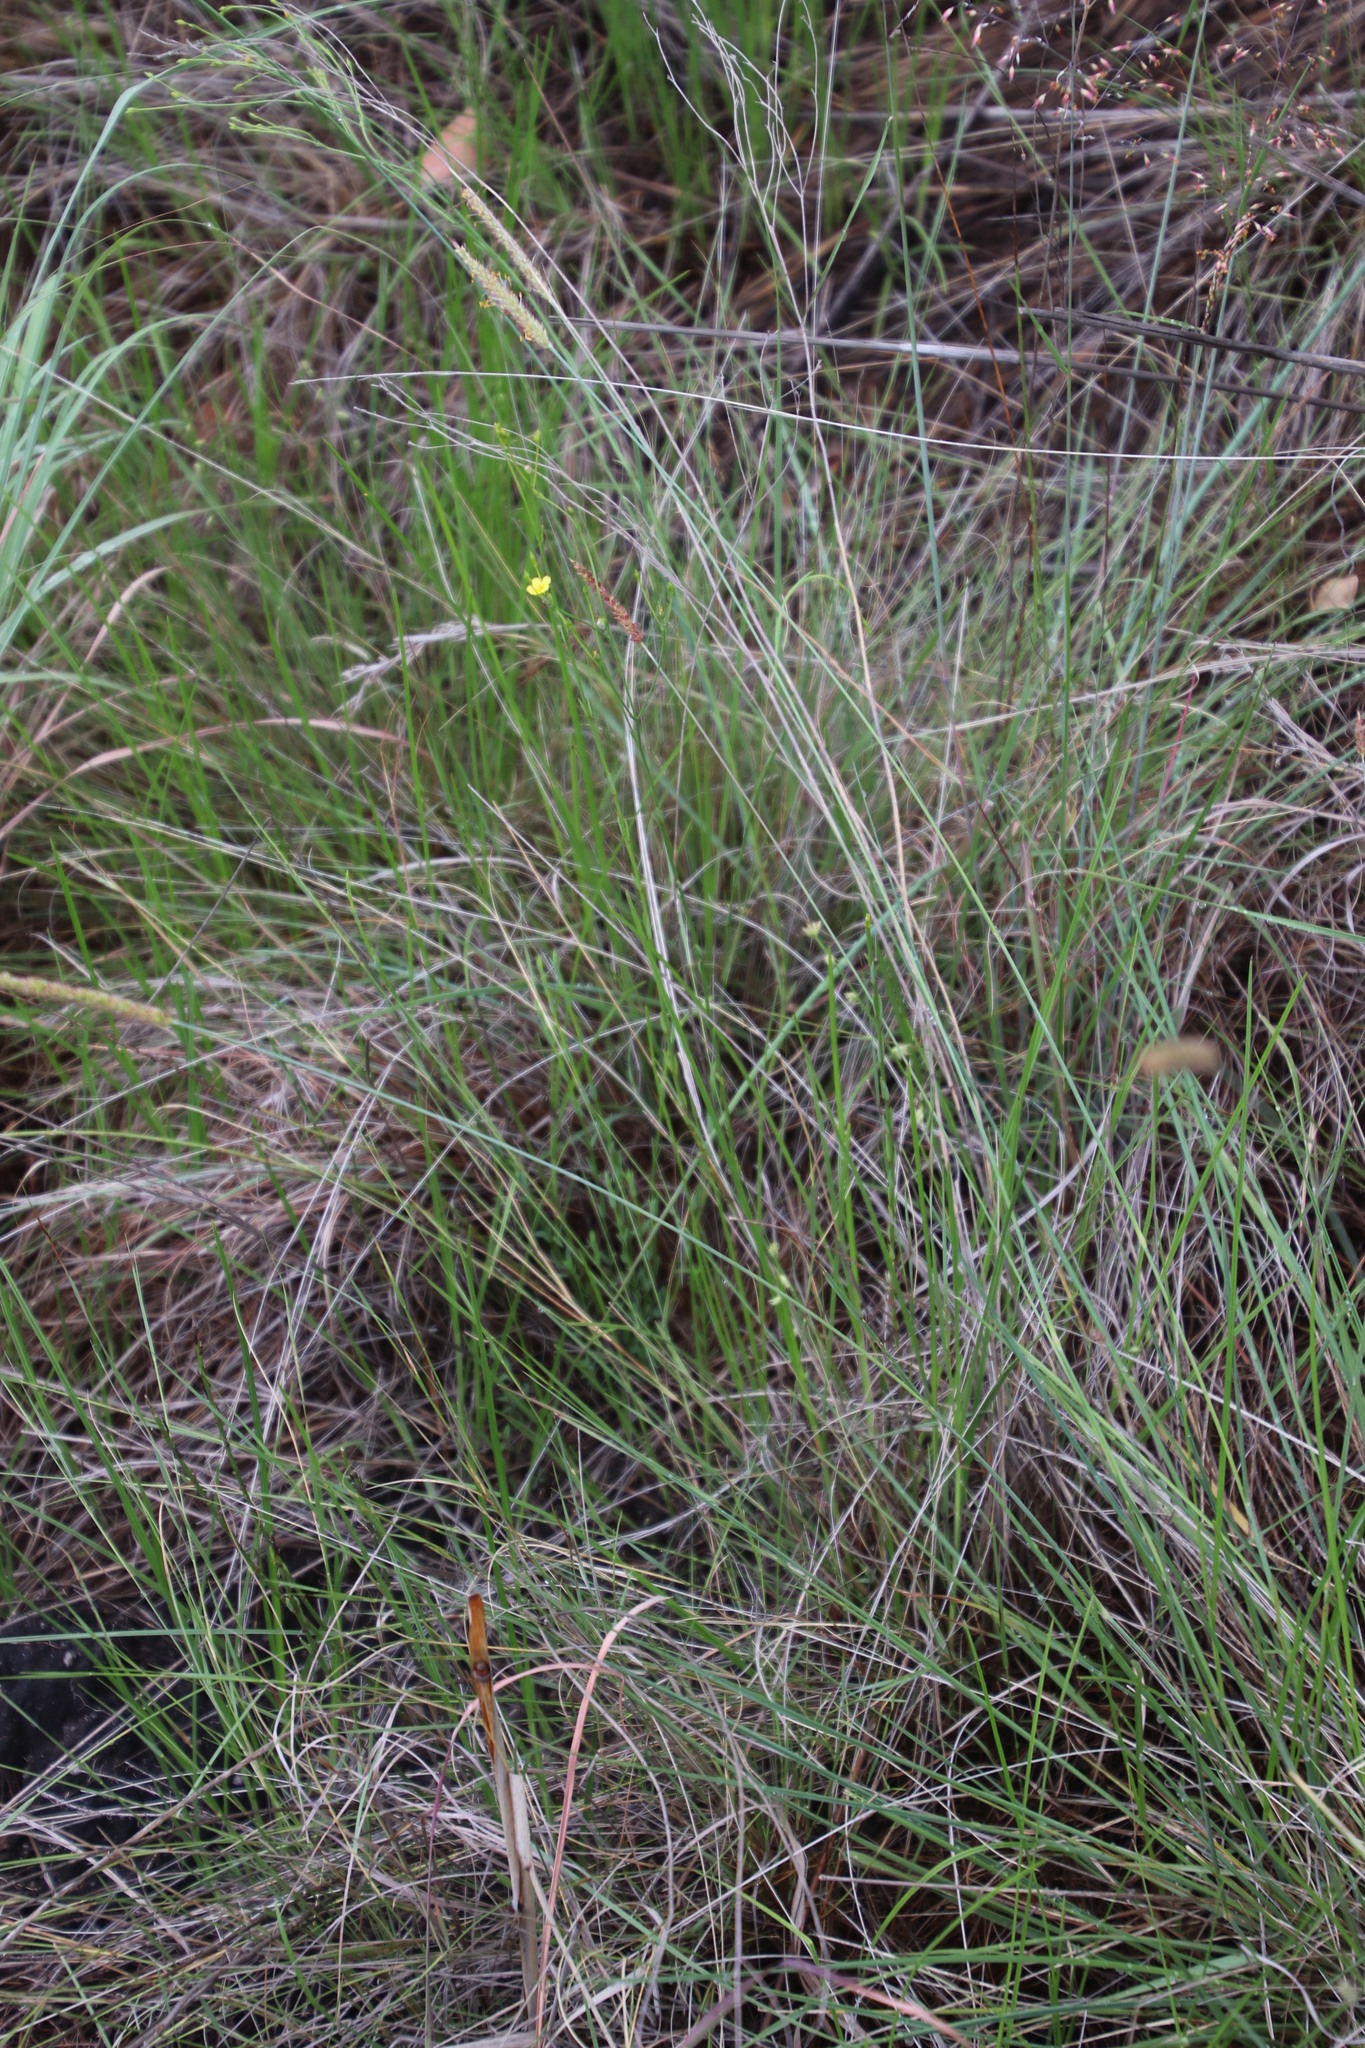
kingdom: Plantae
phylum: Tracheophyta
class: Magnoliopsida
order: Malpighiales
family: Linaceae
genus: Linum
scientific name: Linum thunbergii
